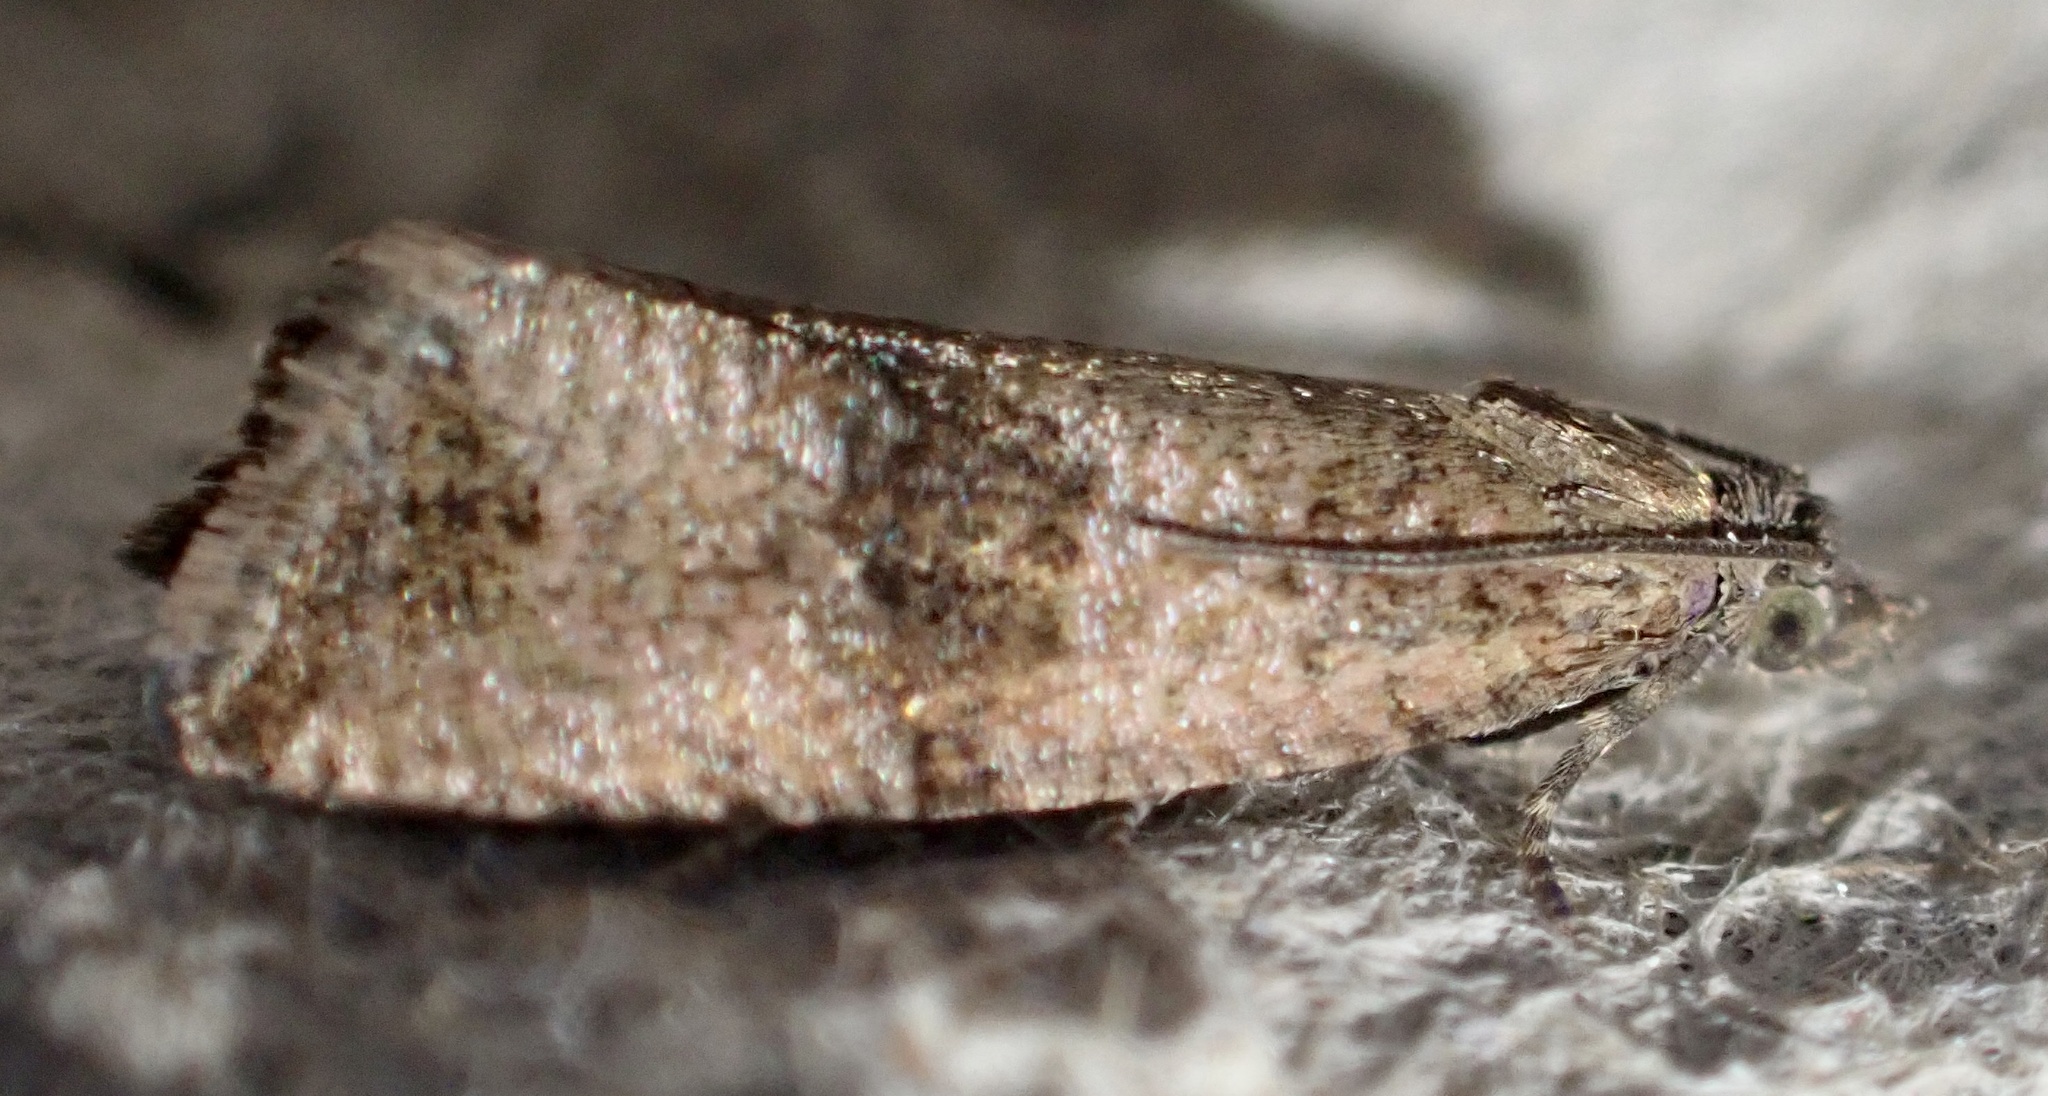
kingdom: Animalia
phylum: Arthropoda
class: Insecta
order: Lepidoptera
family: Tortricidae
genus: Celypha
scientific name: Celypha striana
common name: Barred marble
